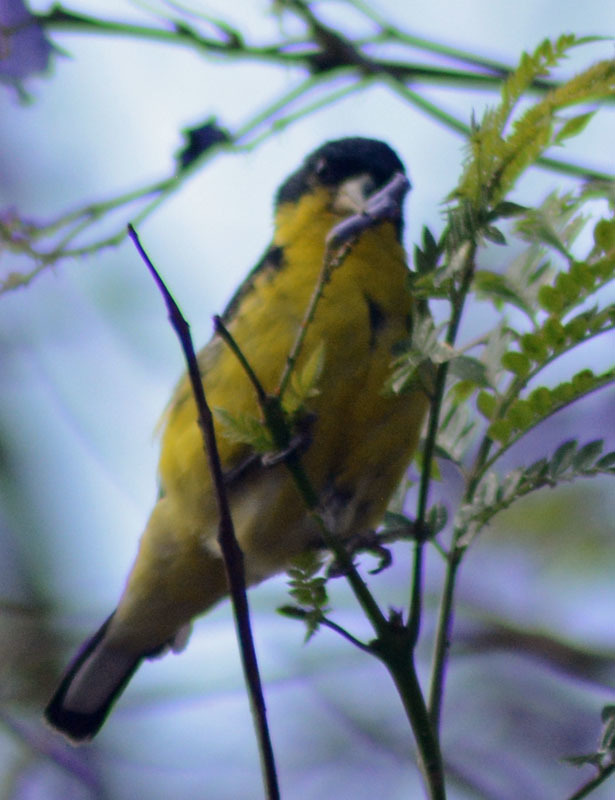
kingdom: Animalia
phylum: Chordata
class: Aves
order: Passeriformes
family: Fringillidae
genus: Spinus
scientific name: Spinus psaltria
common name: Lesser goldfinch
